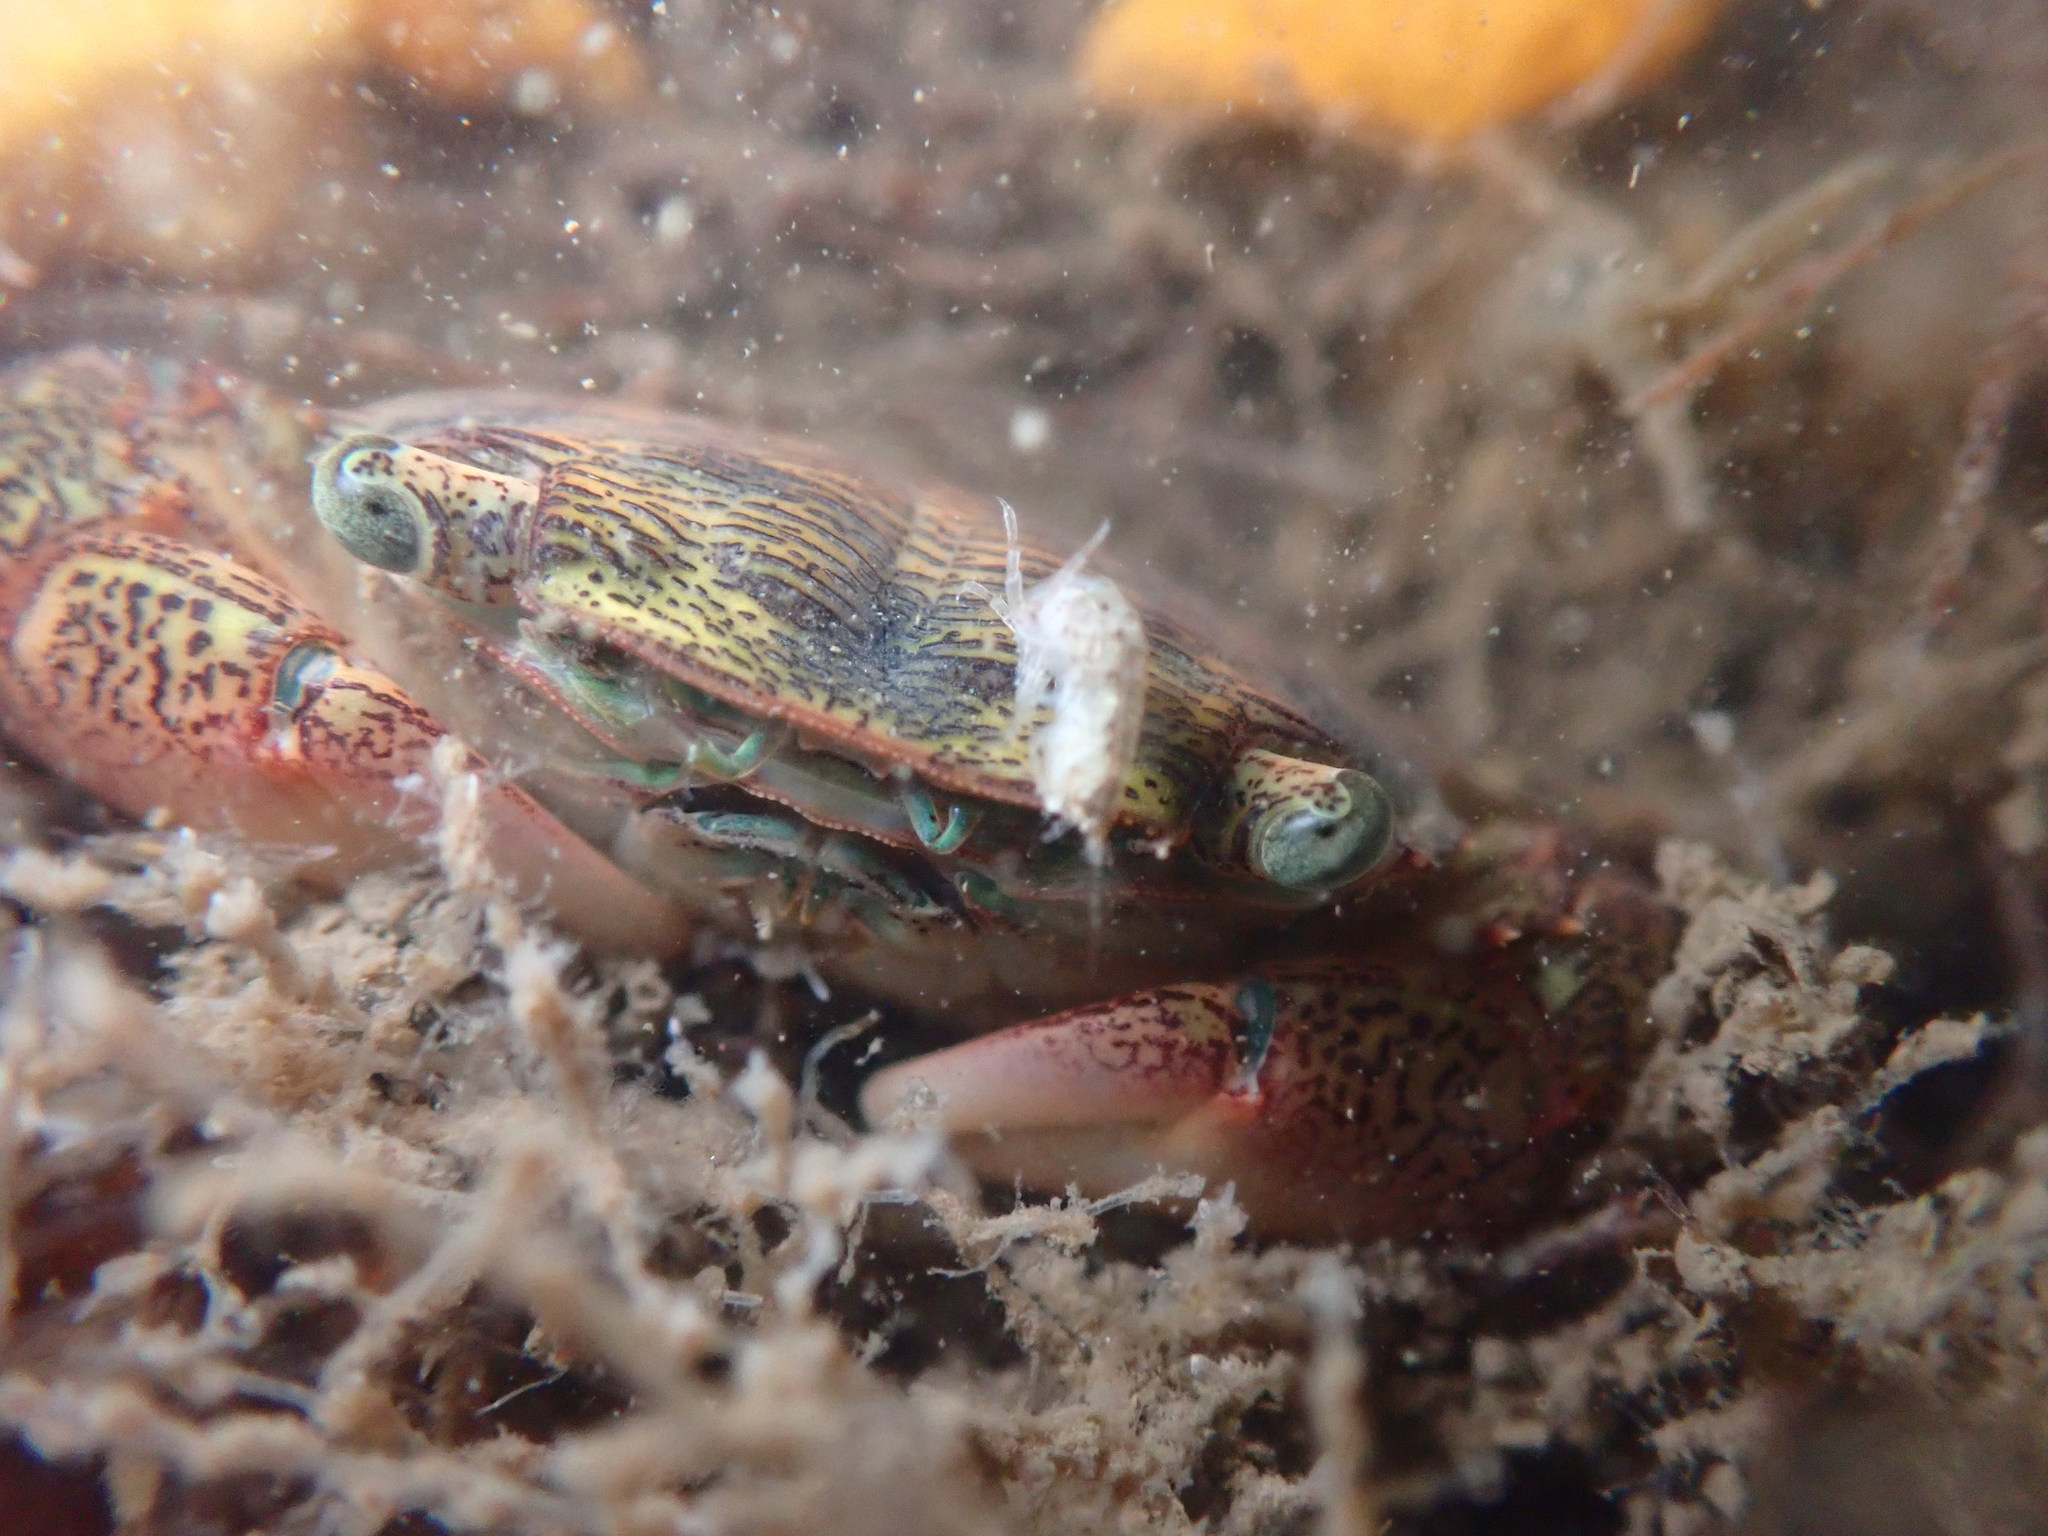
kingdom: Animalia
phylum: Arthropoda
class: Malacostraca
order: Decapoda
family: Grapsidae
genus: Pachygrapsus
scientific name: Pachygrapsus crassipes
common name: Striped shore crab
